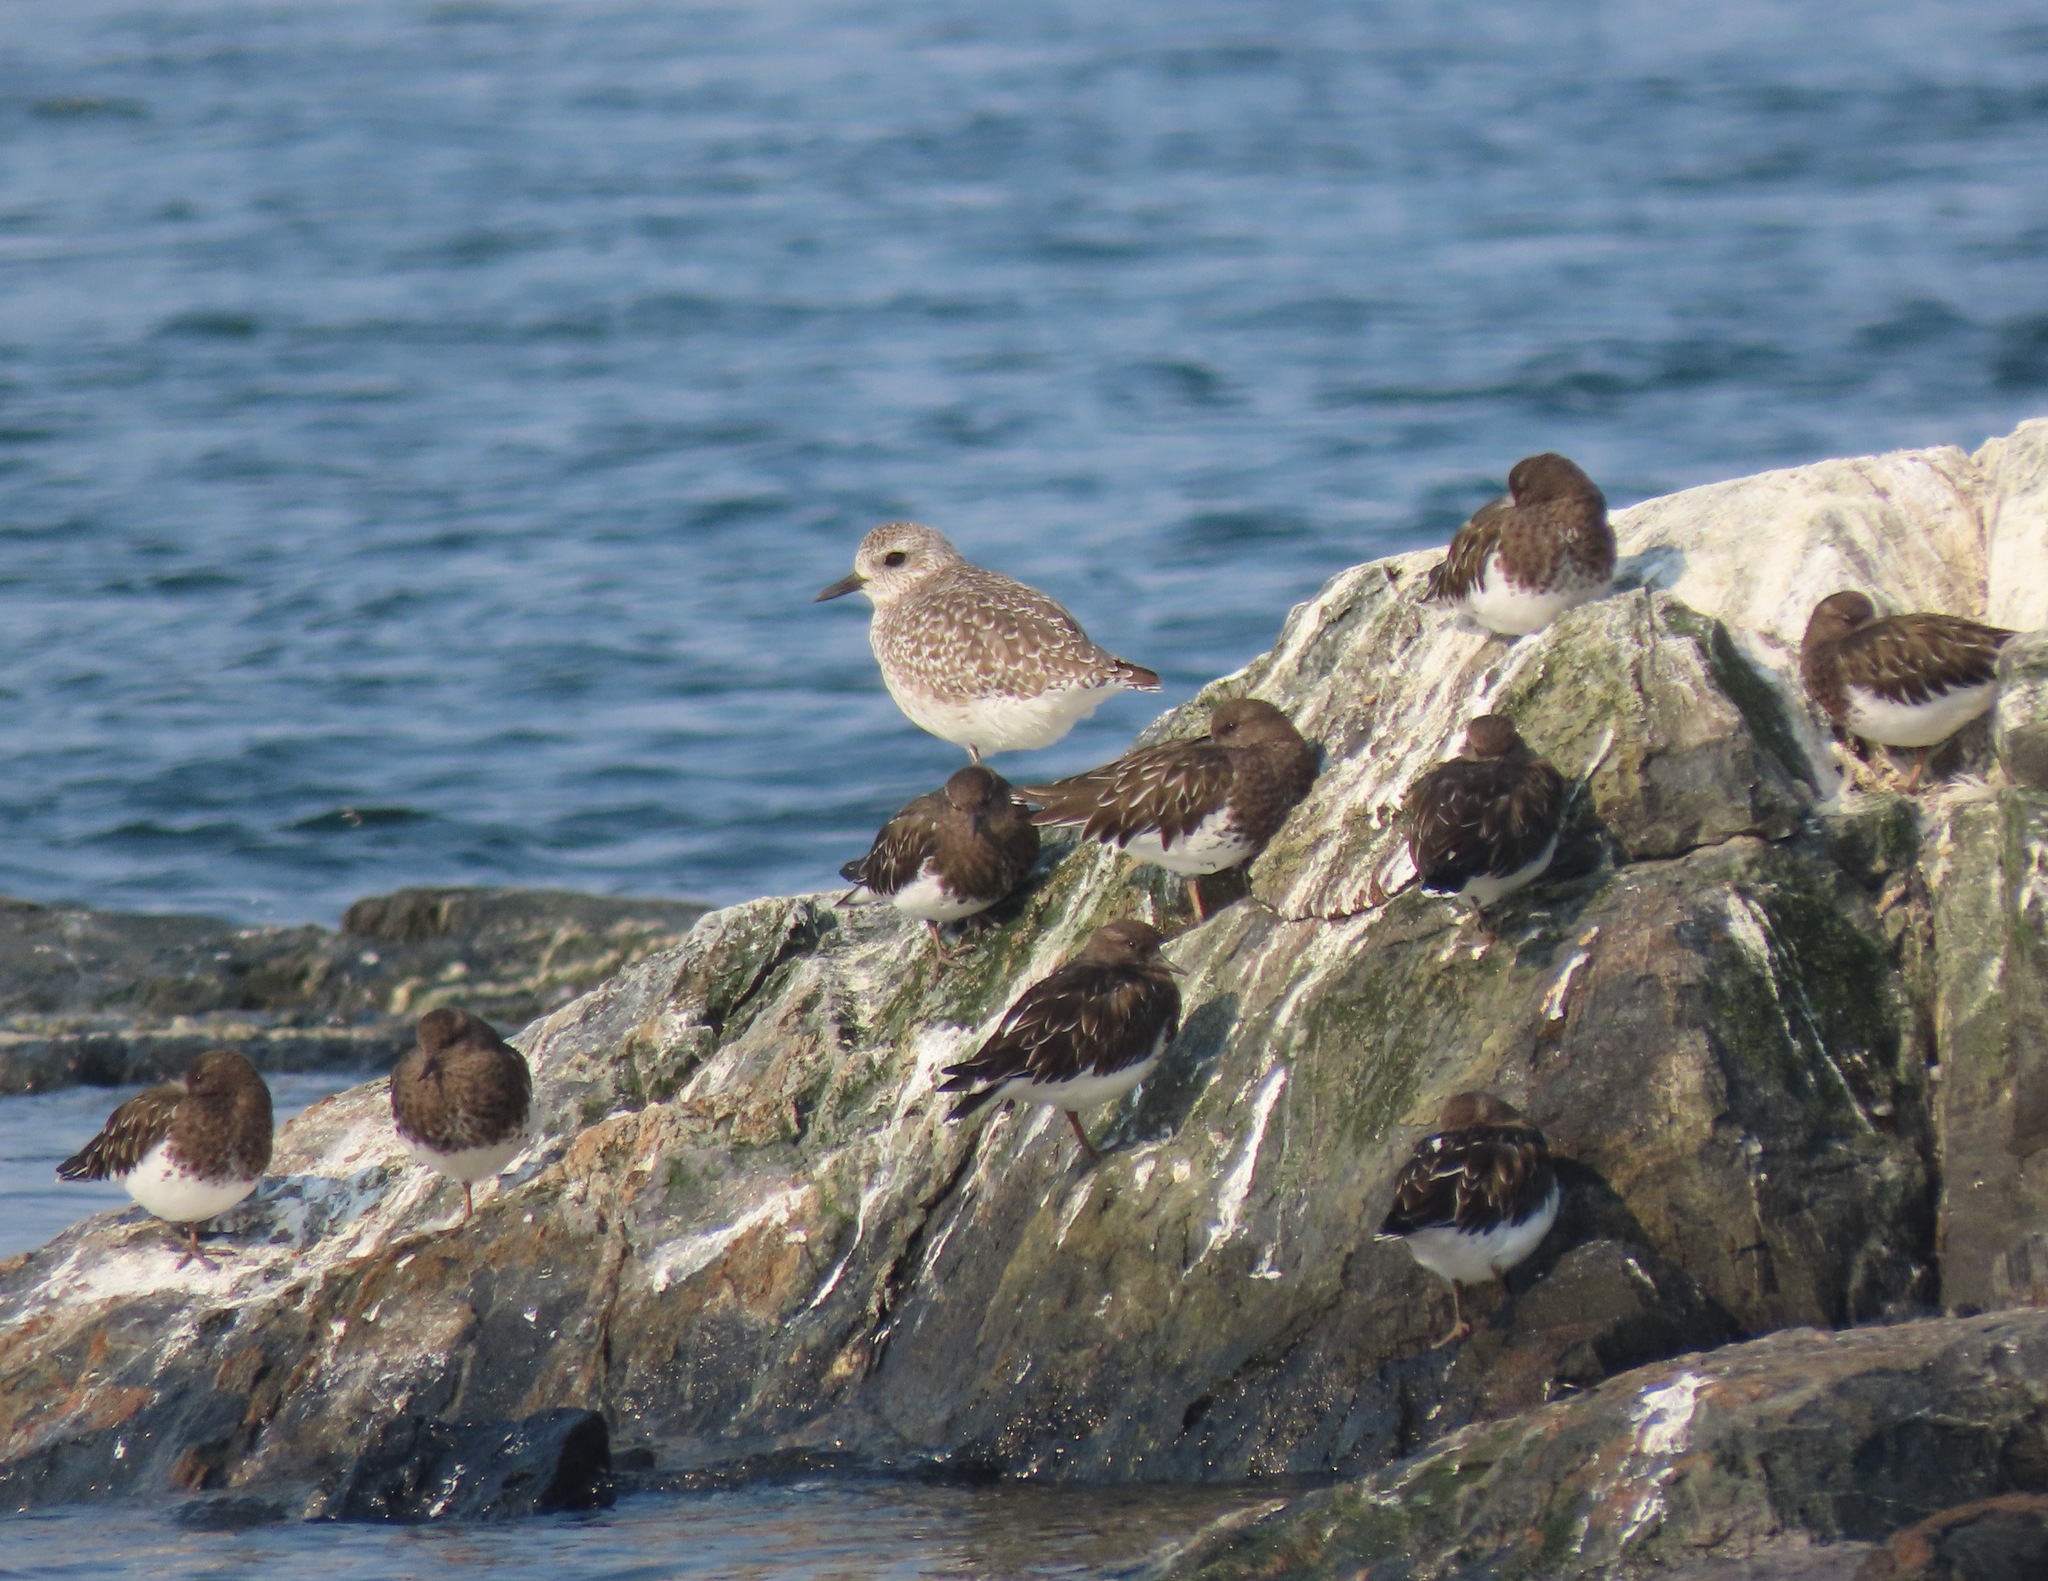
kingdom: Animalia
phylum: Chordata
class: Aves
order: Charadriiformes
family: Charadriidae
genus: Pluvialis
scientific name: Pluvialis squatarola
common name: Grey plover
